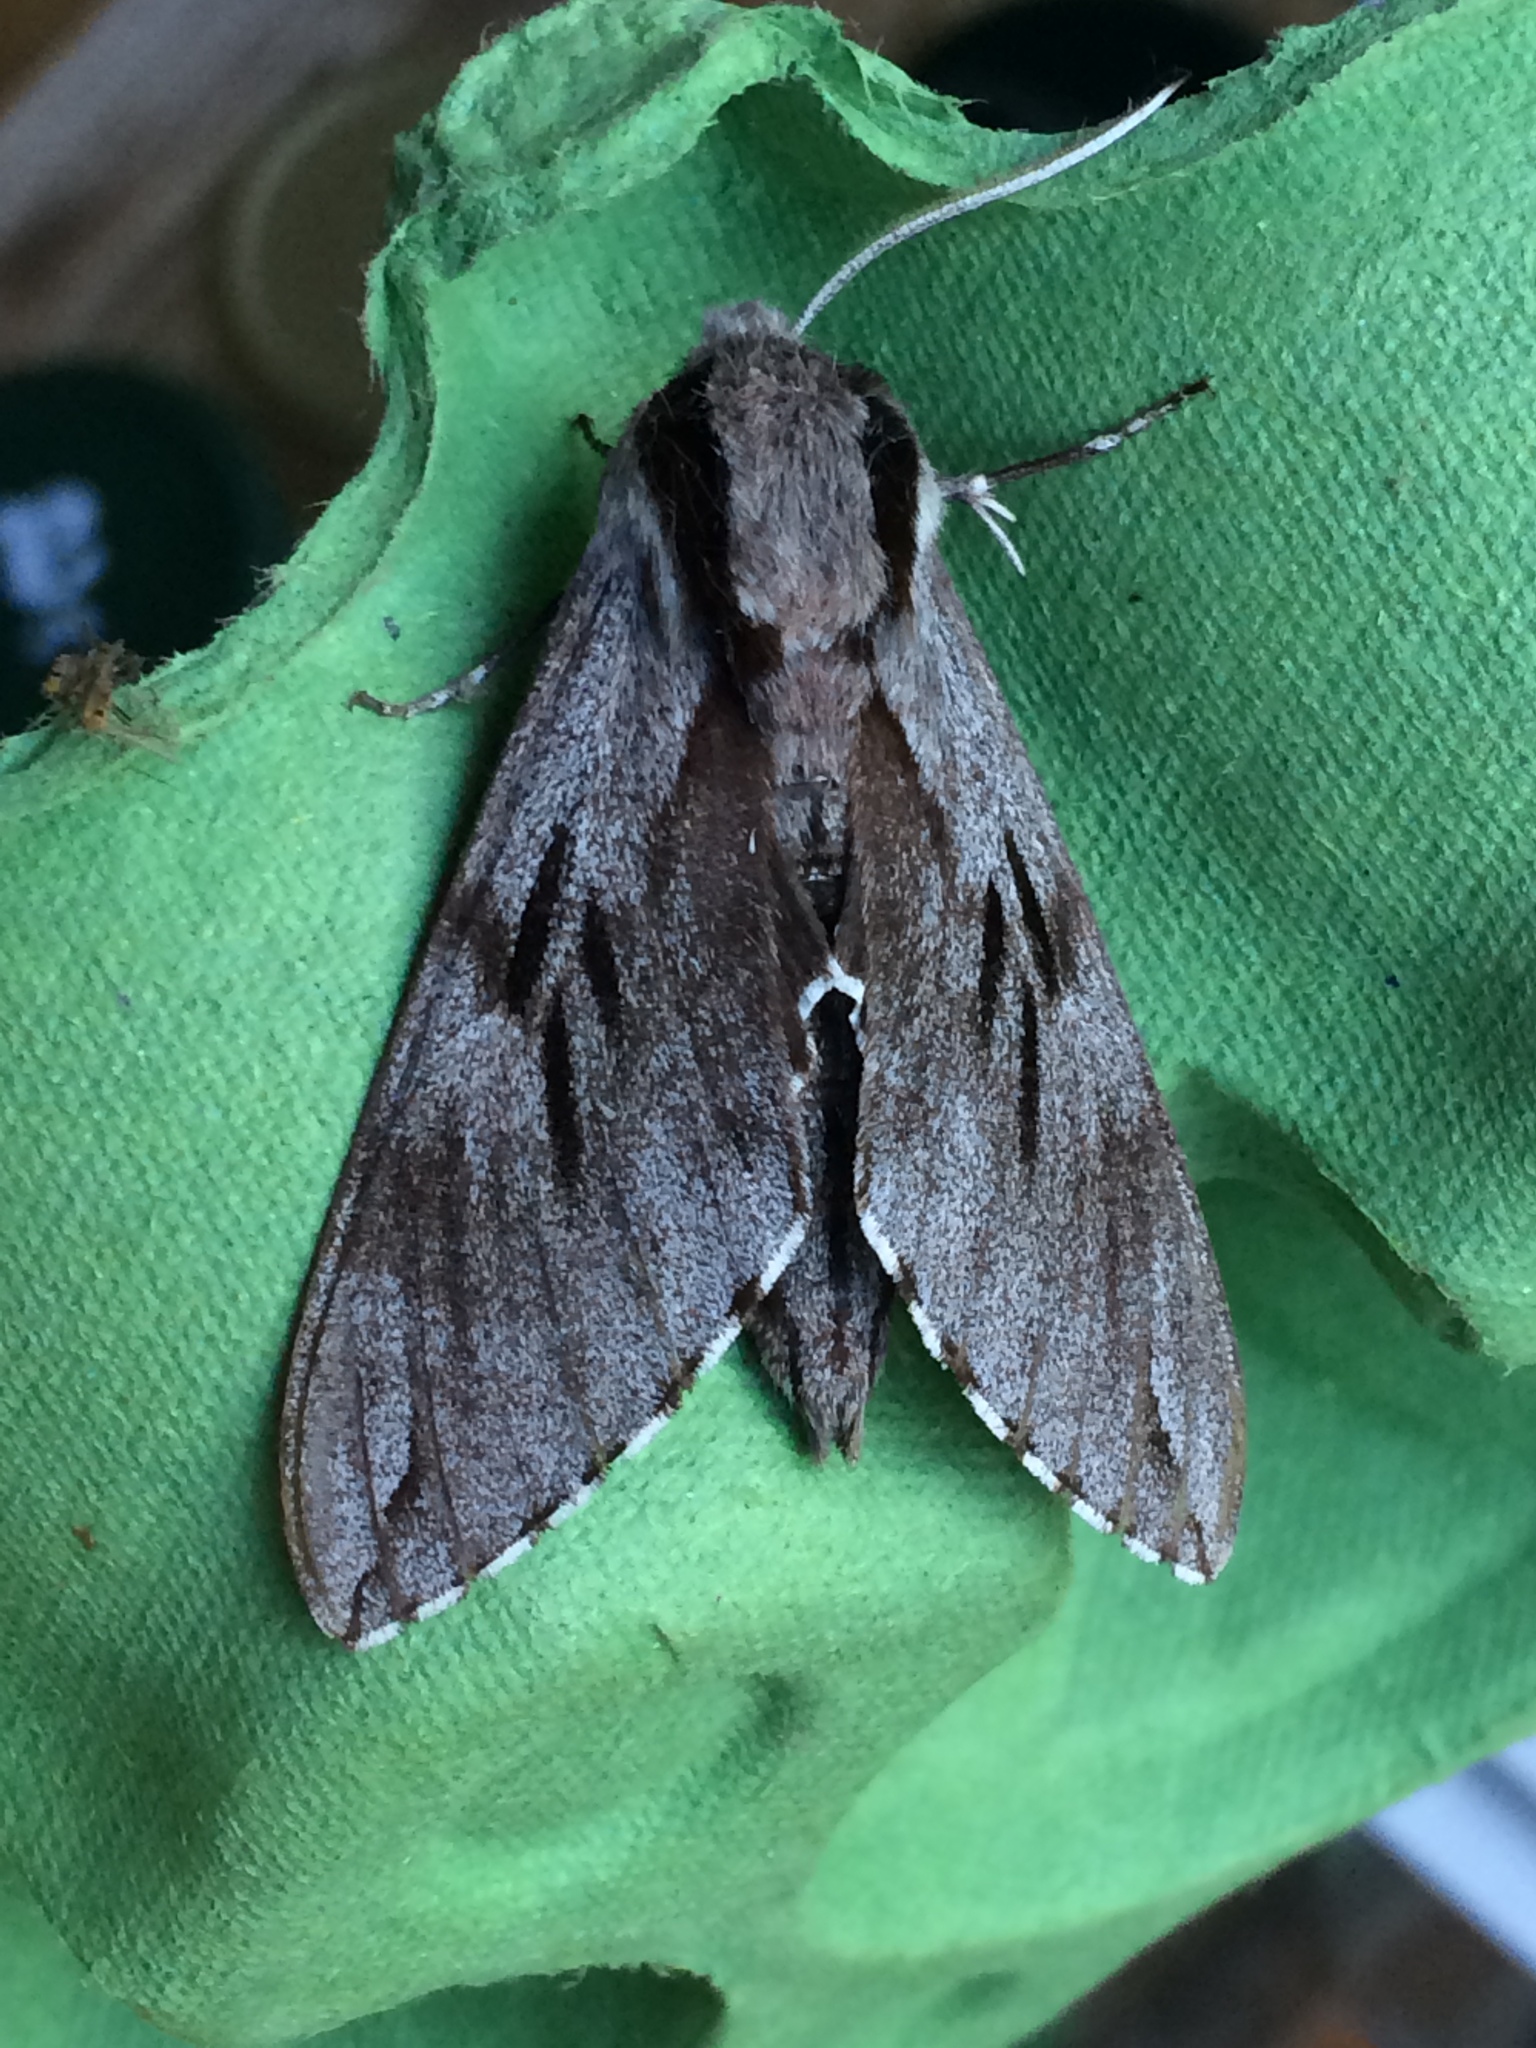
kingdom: Animalia
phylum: Arthropoda
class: Insecta
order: Lepidoptera
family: Sphingidae
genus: Sphinx
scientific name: Sphinx pinastri
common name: Pine hawk-moth
